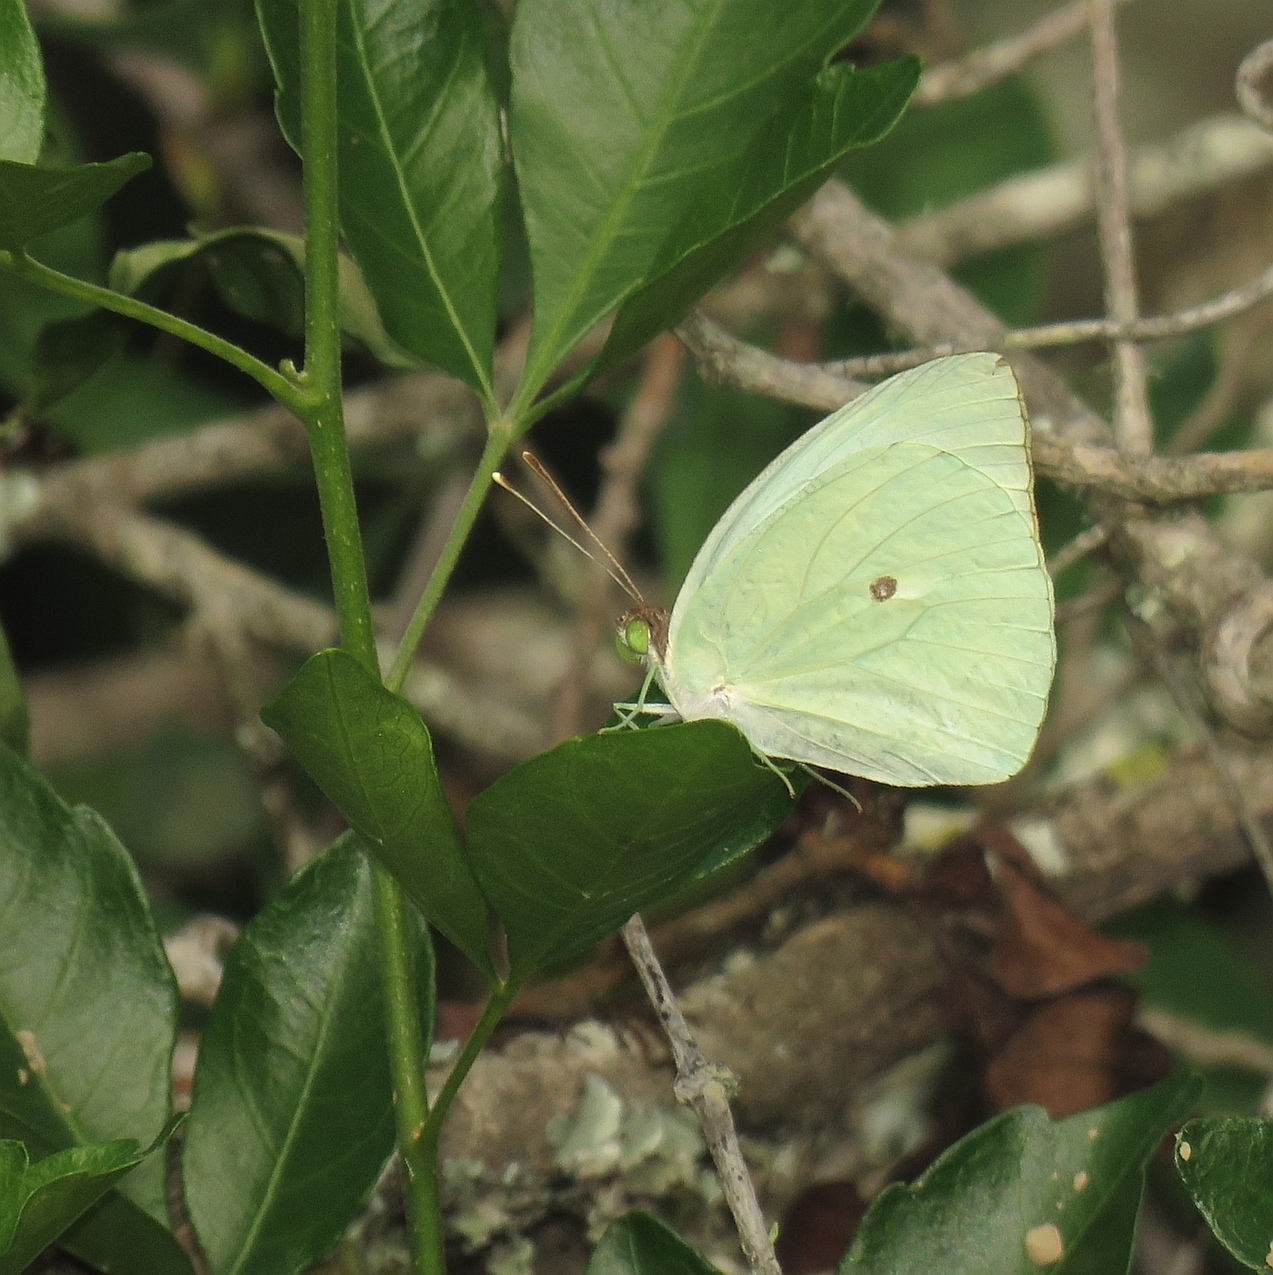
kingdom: Animalia
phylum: Arthropoda
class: Insecta
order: Lepidoptera
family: Pieridae
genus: Nepheronia
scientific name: Nepheronia buquetii
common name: Plain vagrant
